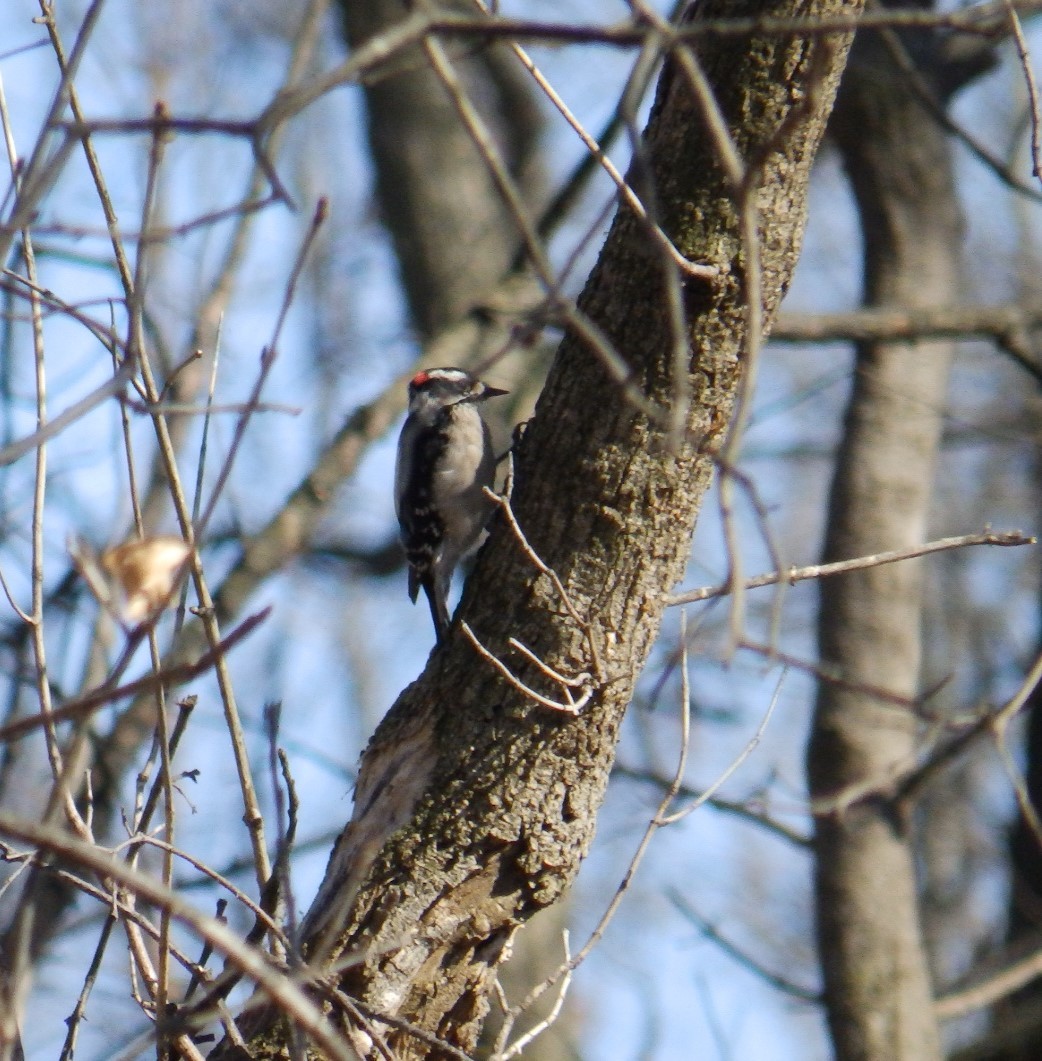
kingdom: Animalia
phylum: Chordata
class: Aves
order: Piciformes
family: Picidae
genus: Dryobates
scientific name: Dryobates pubescens
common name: Downy woodpecker
